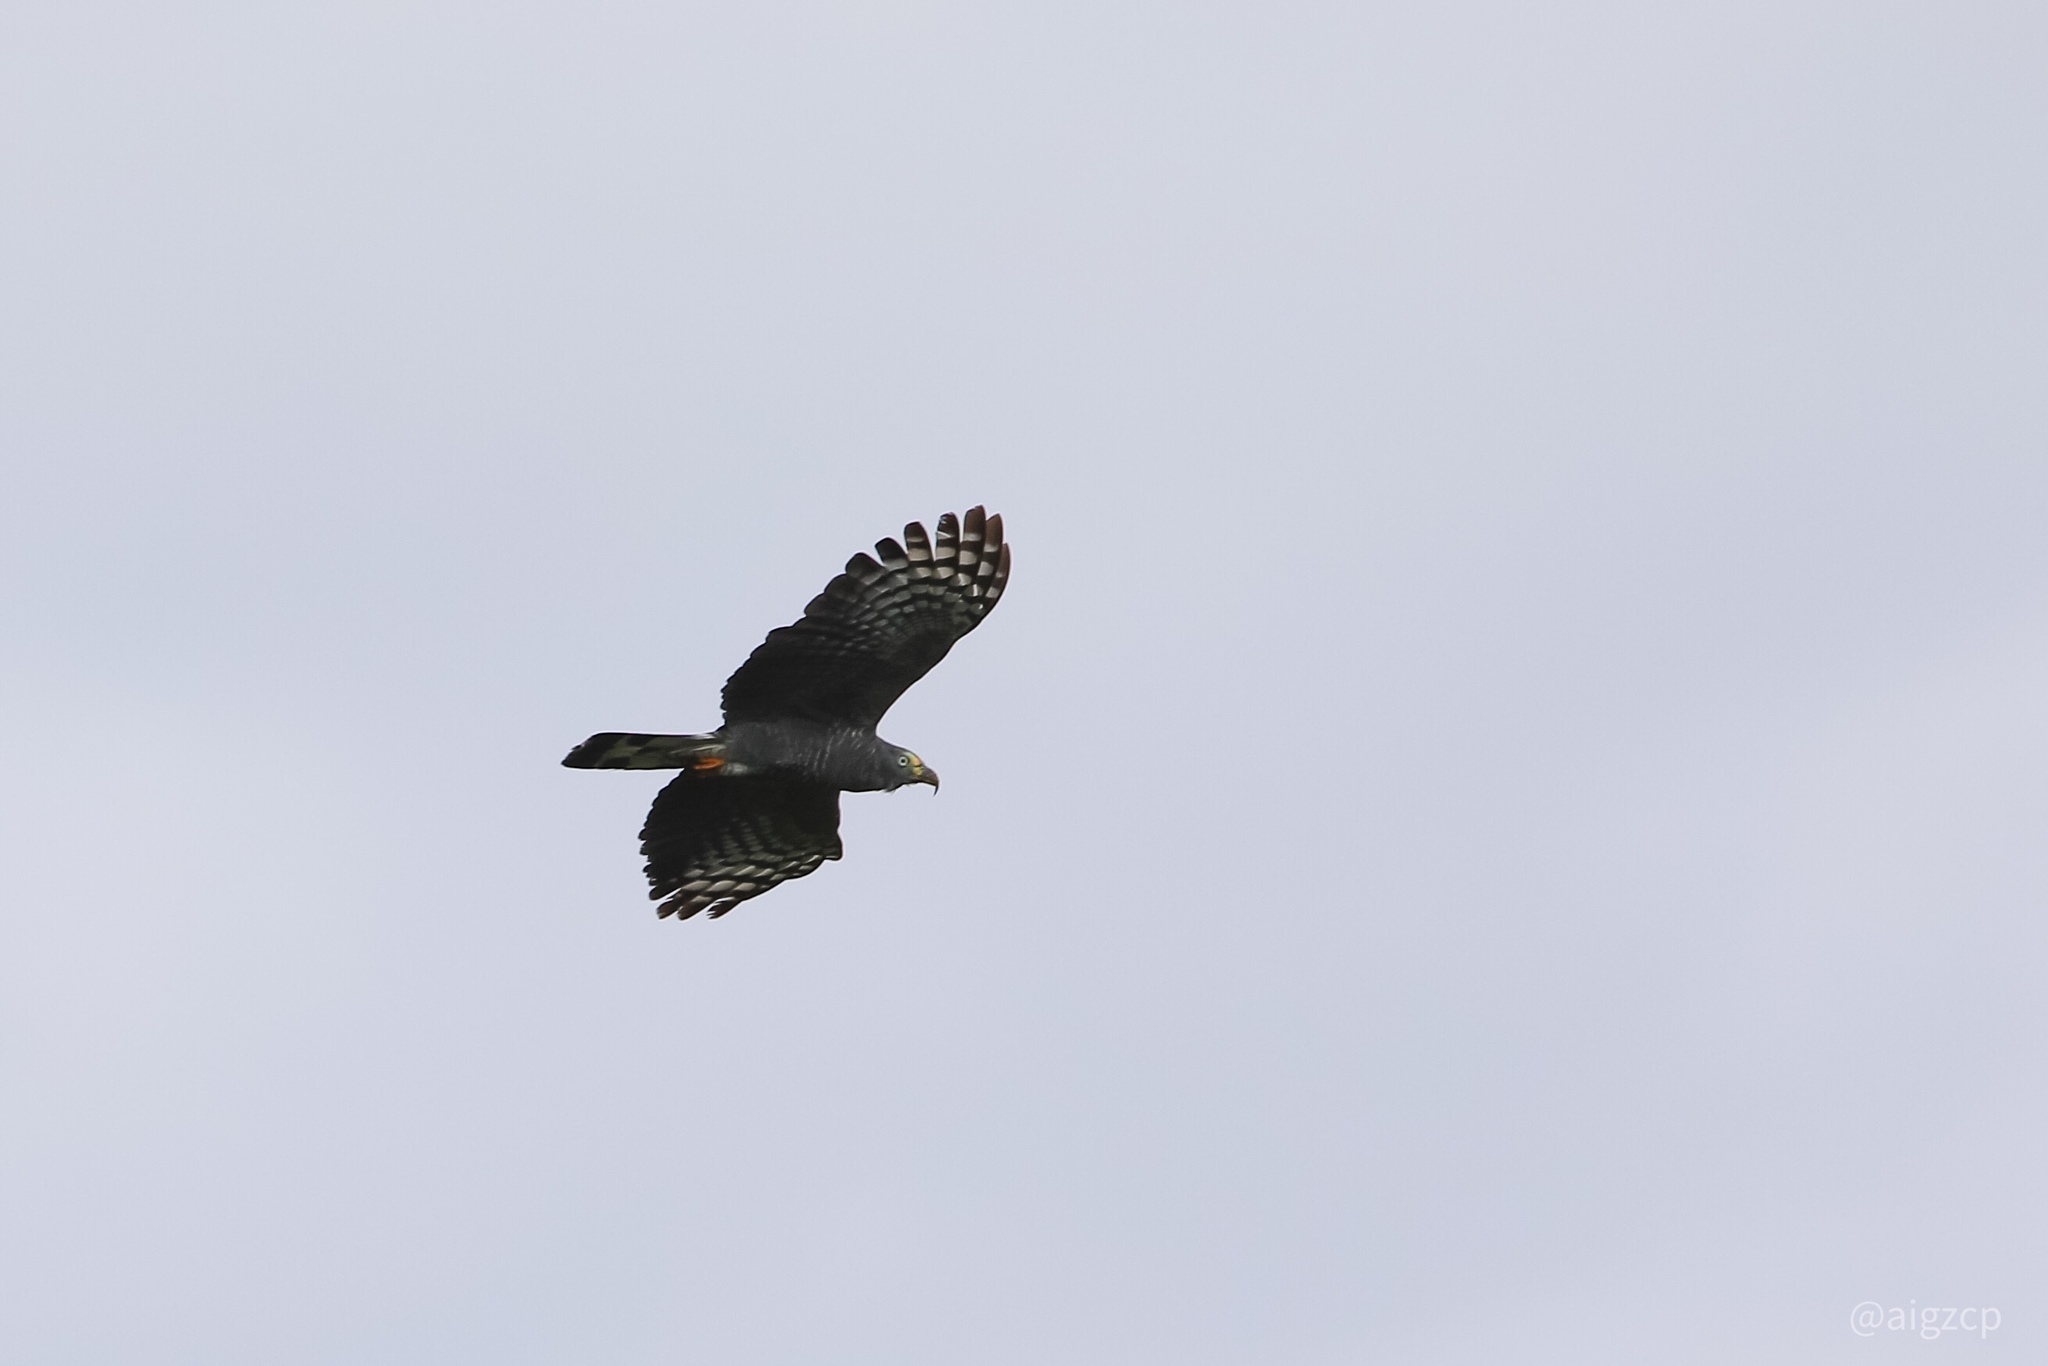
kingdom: Animalia
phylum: Chordata
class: Aves
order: Accipitriformes
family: Accipitridae
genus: Chondrohierax
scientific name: Chondrohierax uncinatus
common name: Hook-billed kite
